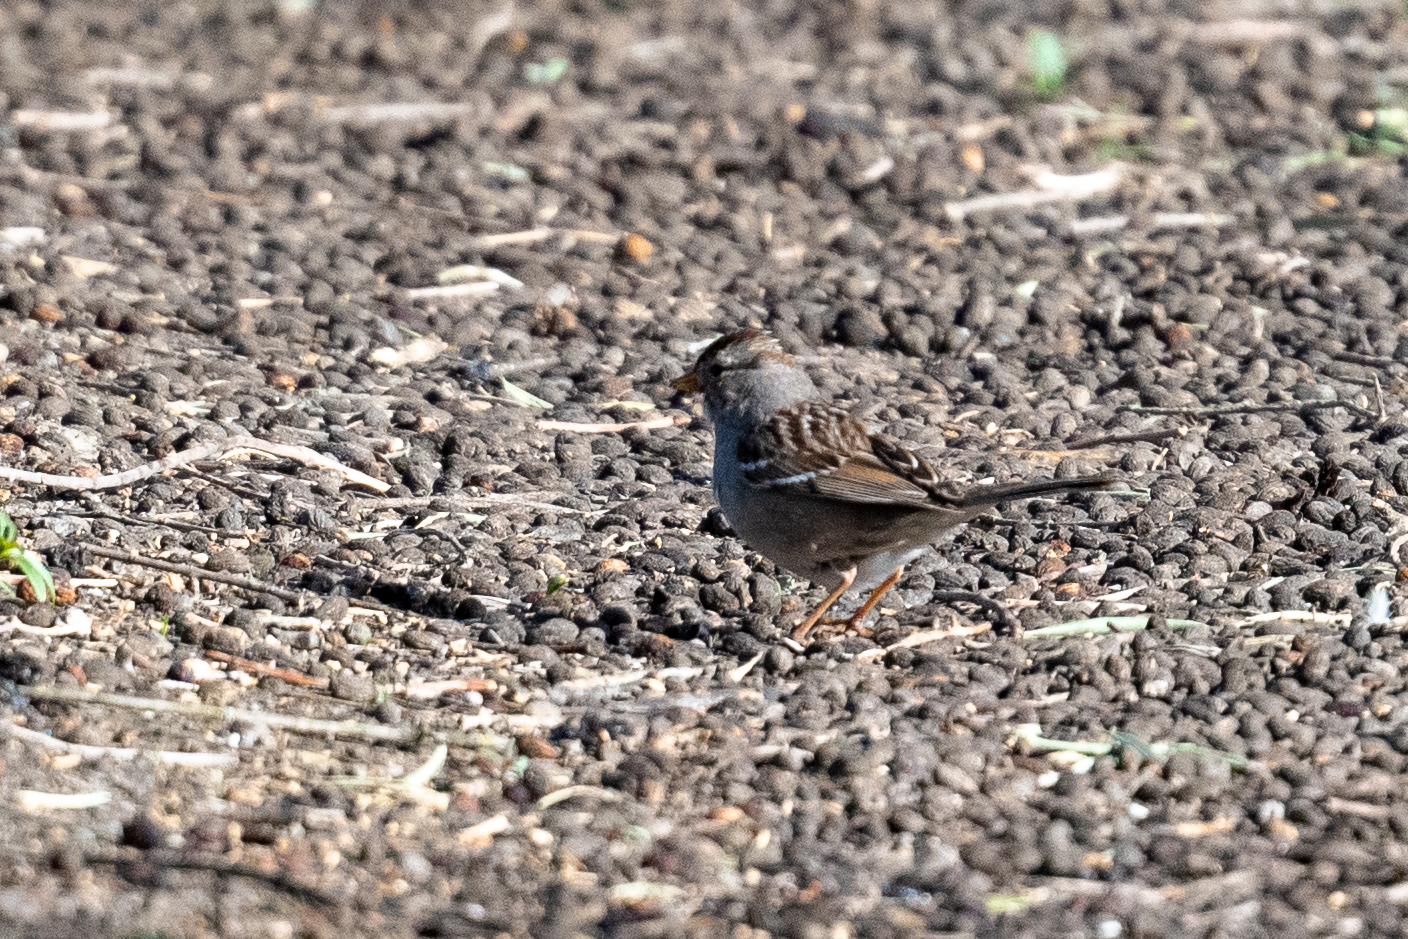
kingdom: Animalia
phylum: Chordata
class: Aves
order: Passeriformes
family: Passerellidae
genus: Zonotrichia
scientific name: Zonotrichia leucophrys
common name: White-crowned sparrow
